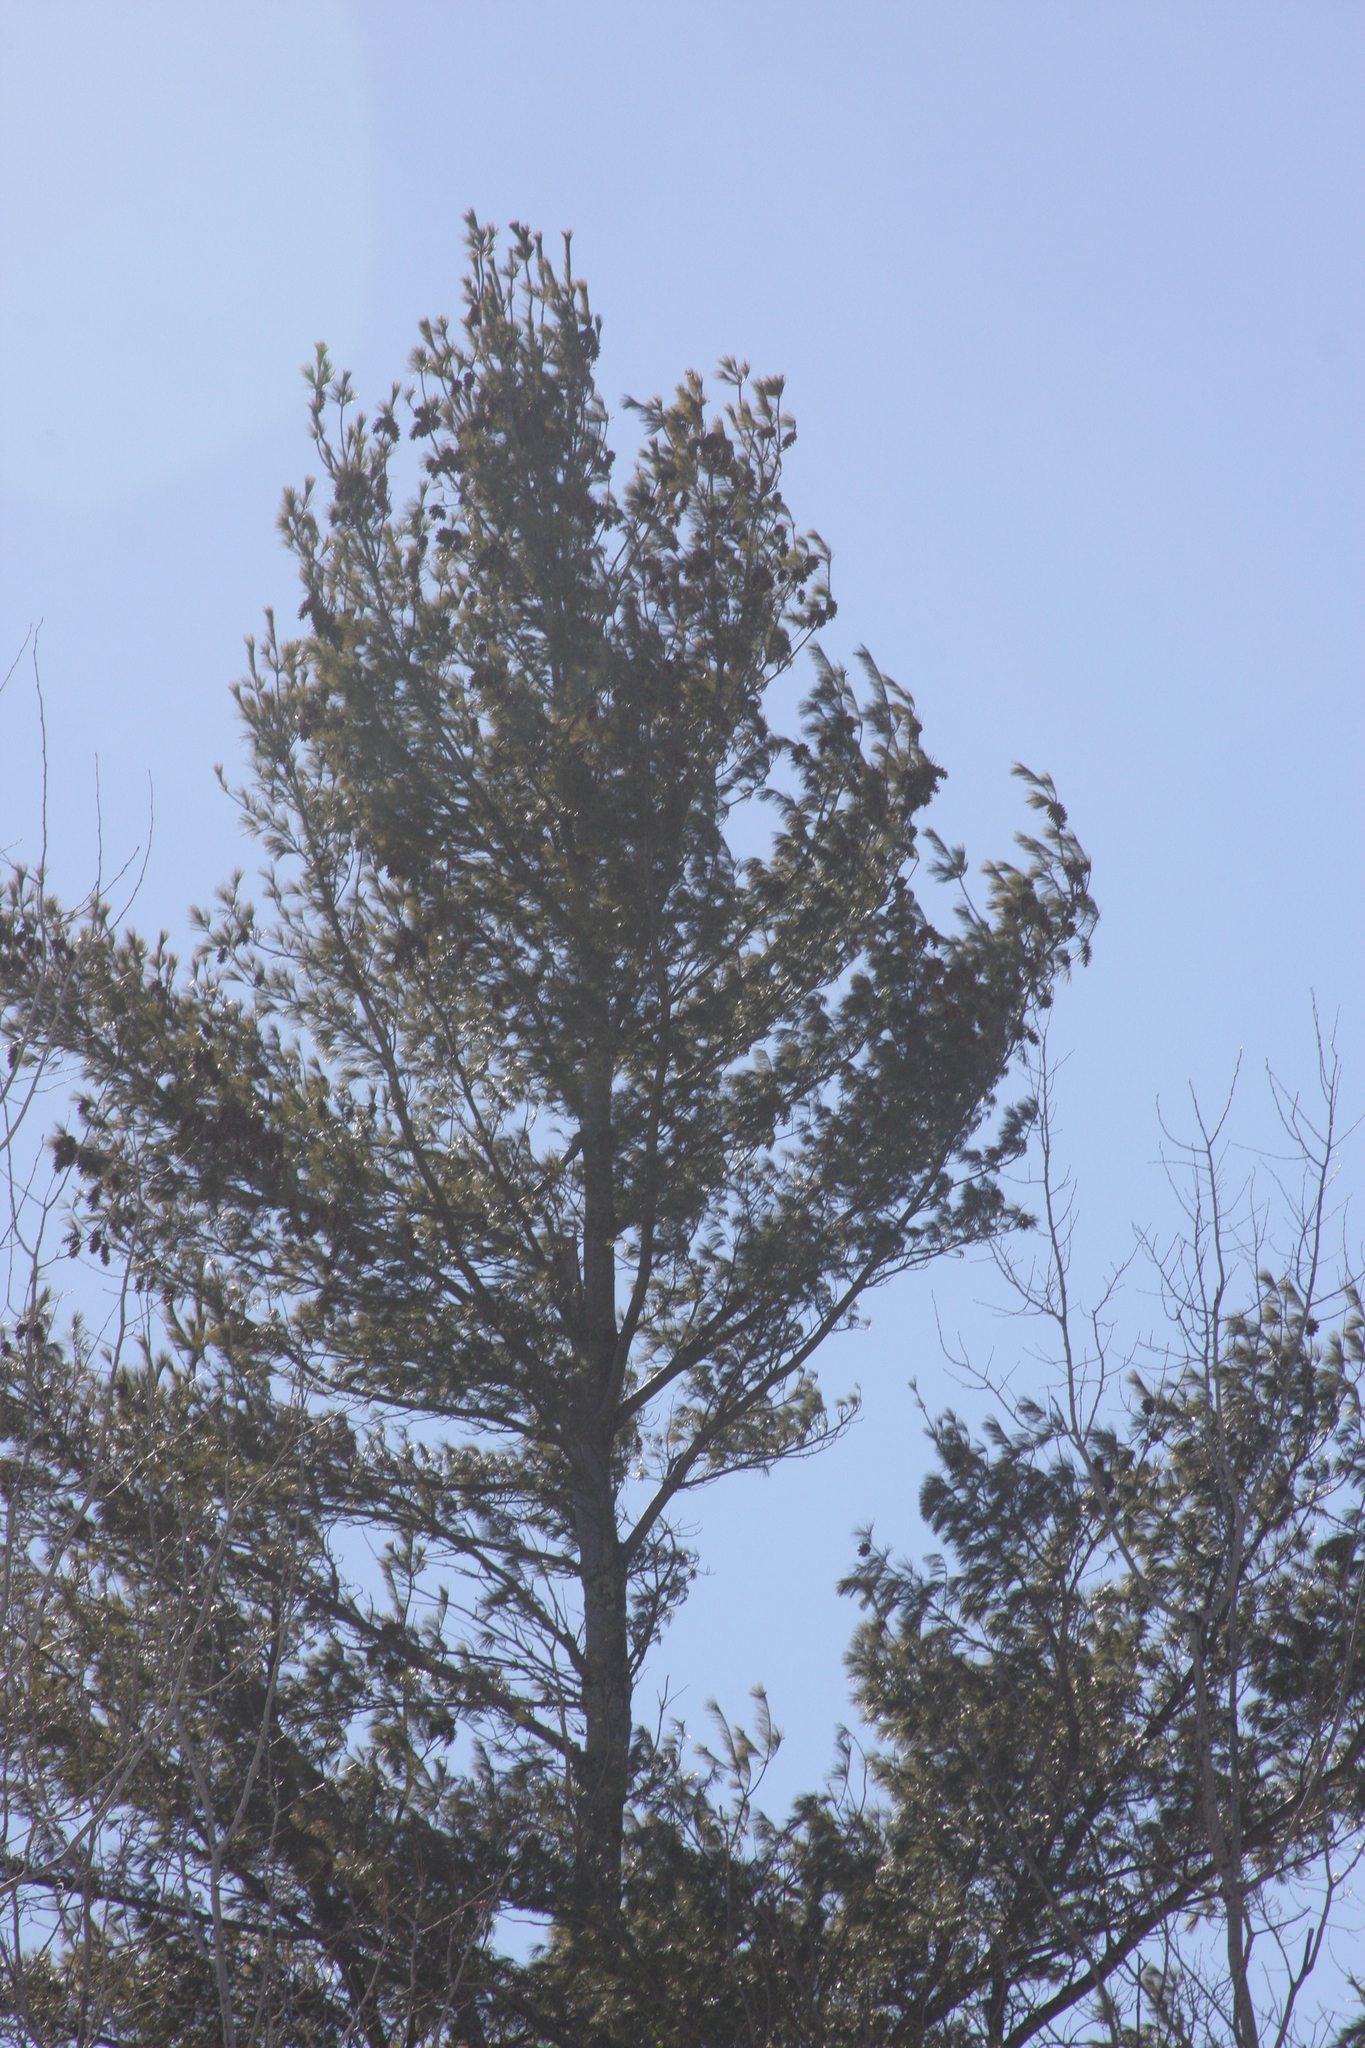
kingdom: Plantae
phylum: Tracheophyta
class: Pinopsida
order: Pinales
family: Pinaceae
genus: Pinus
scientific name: Pinus strobus
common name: Weymouth pine
